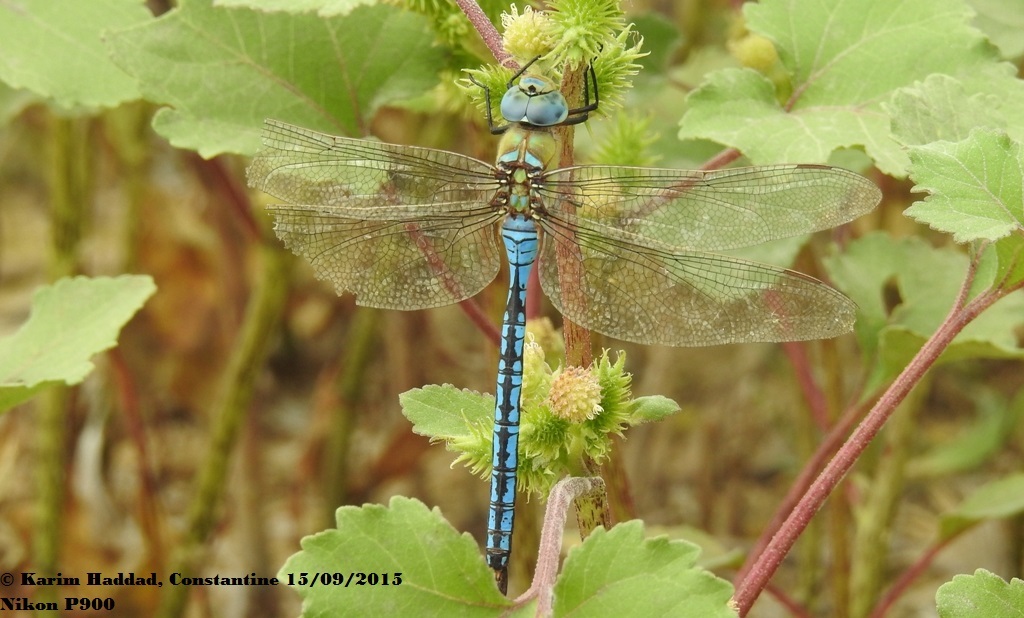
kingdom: Animalia
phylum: Arthropoda
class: Insecta
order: Odonata
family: Aeshnidae
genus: Anax
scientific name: Anax imperator
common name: Emperor dragonfly
